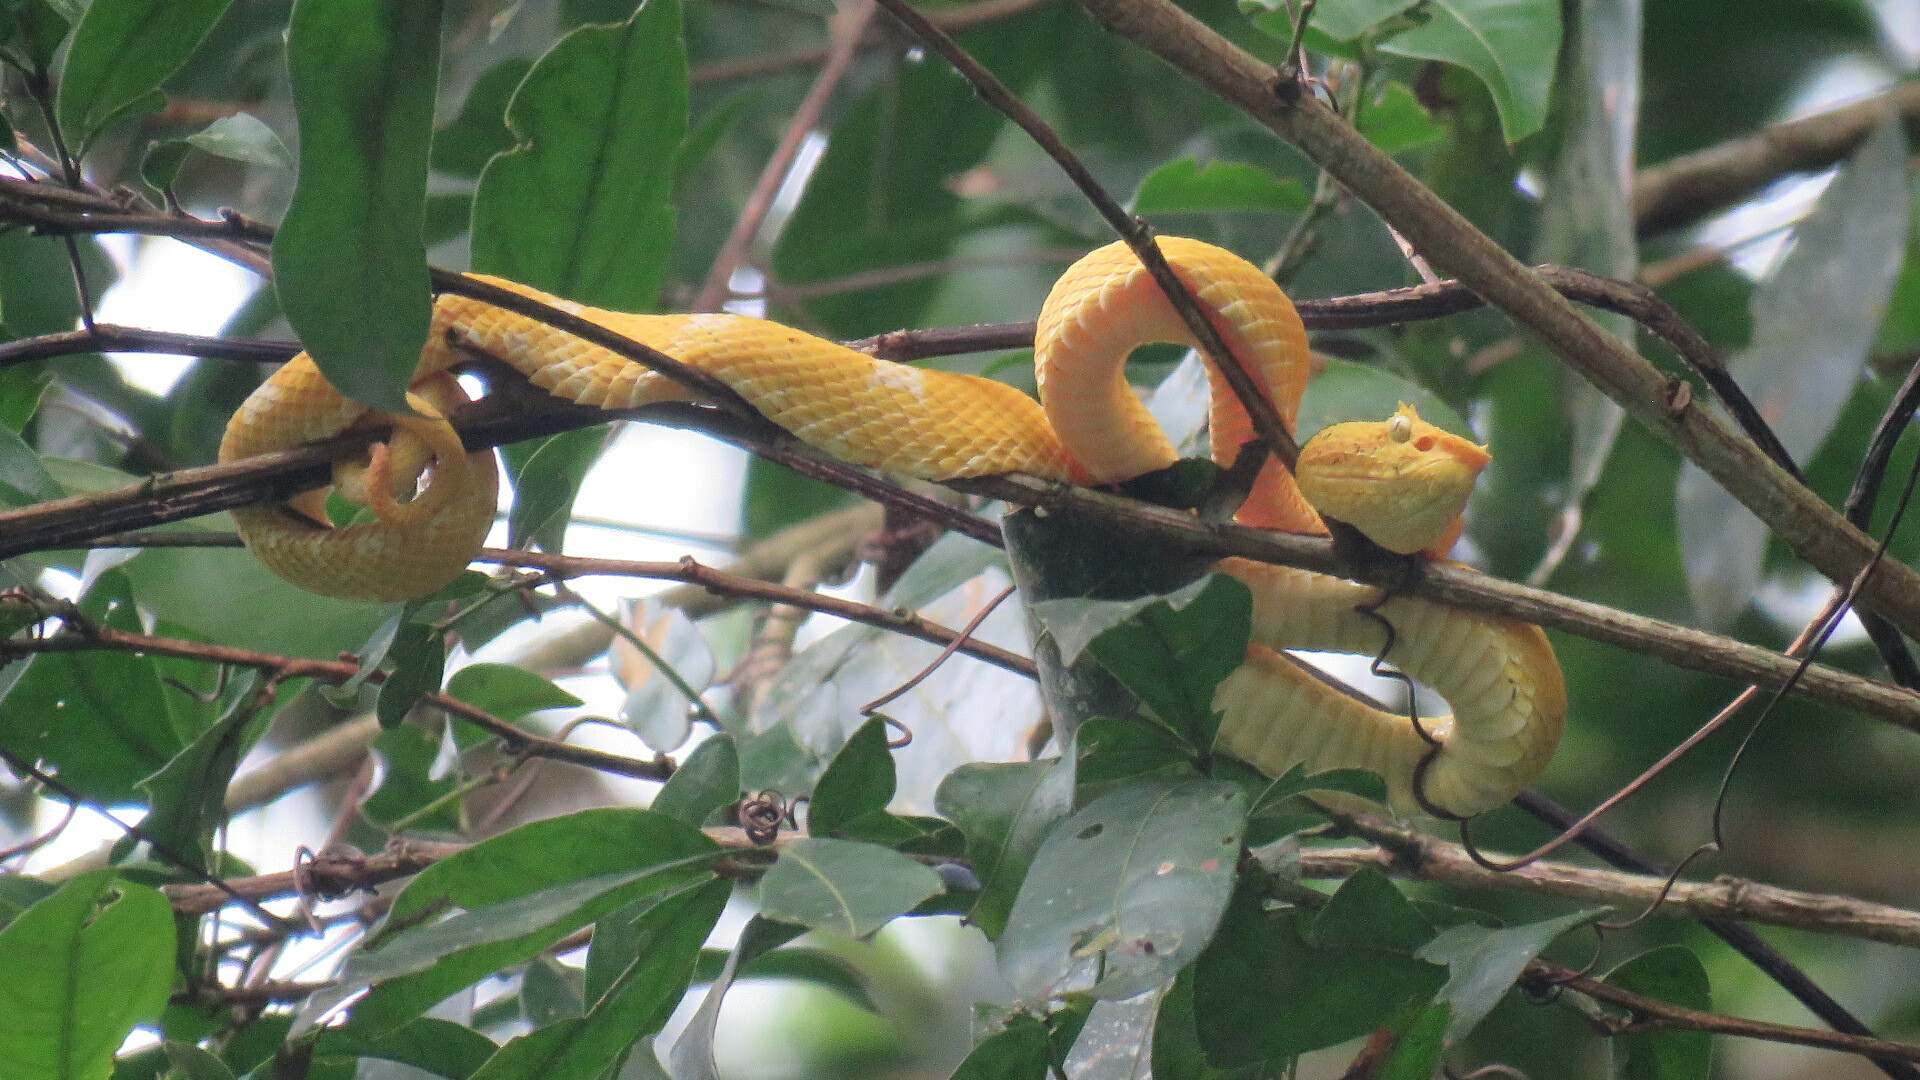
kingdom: Animalia
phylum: Chordata
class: Squamata
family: Viperidae
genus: Bothriechis
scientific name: Bothriechis schlegelii
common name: Eyelash viper
